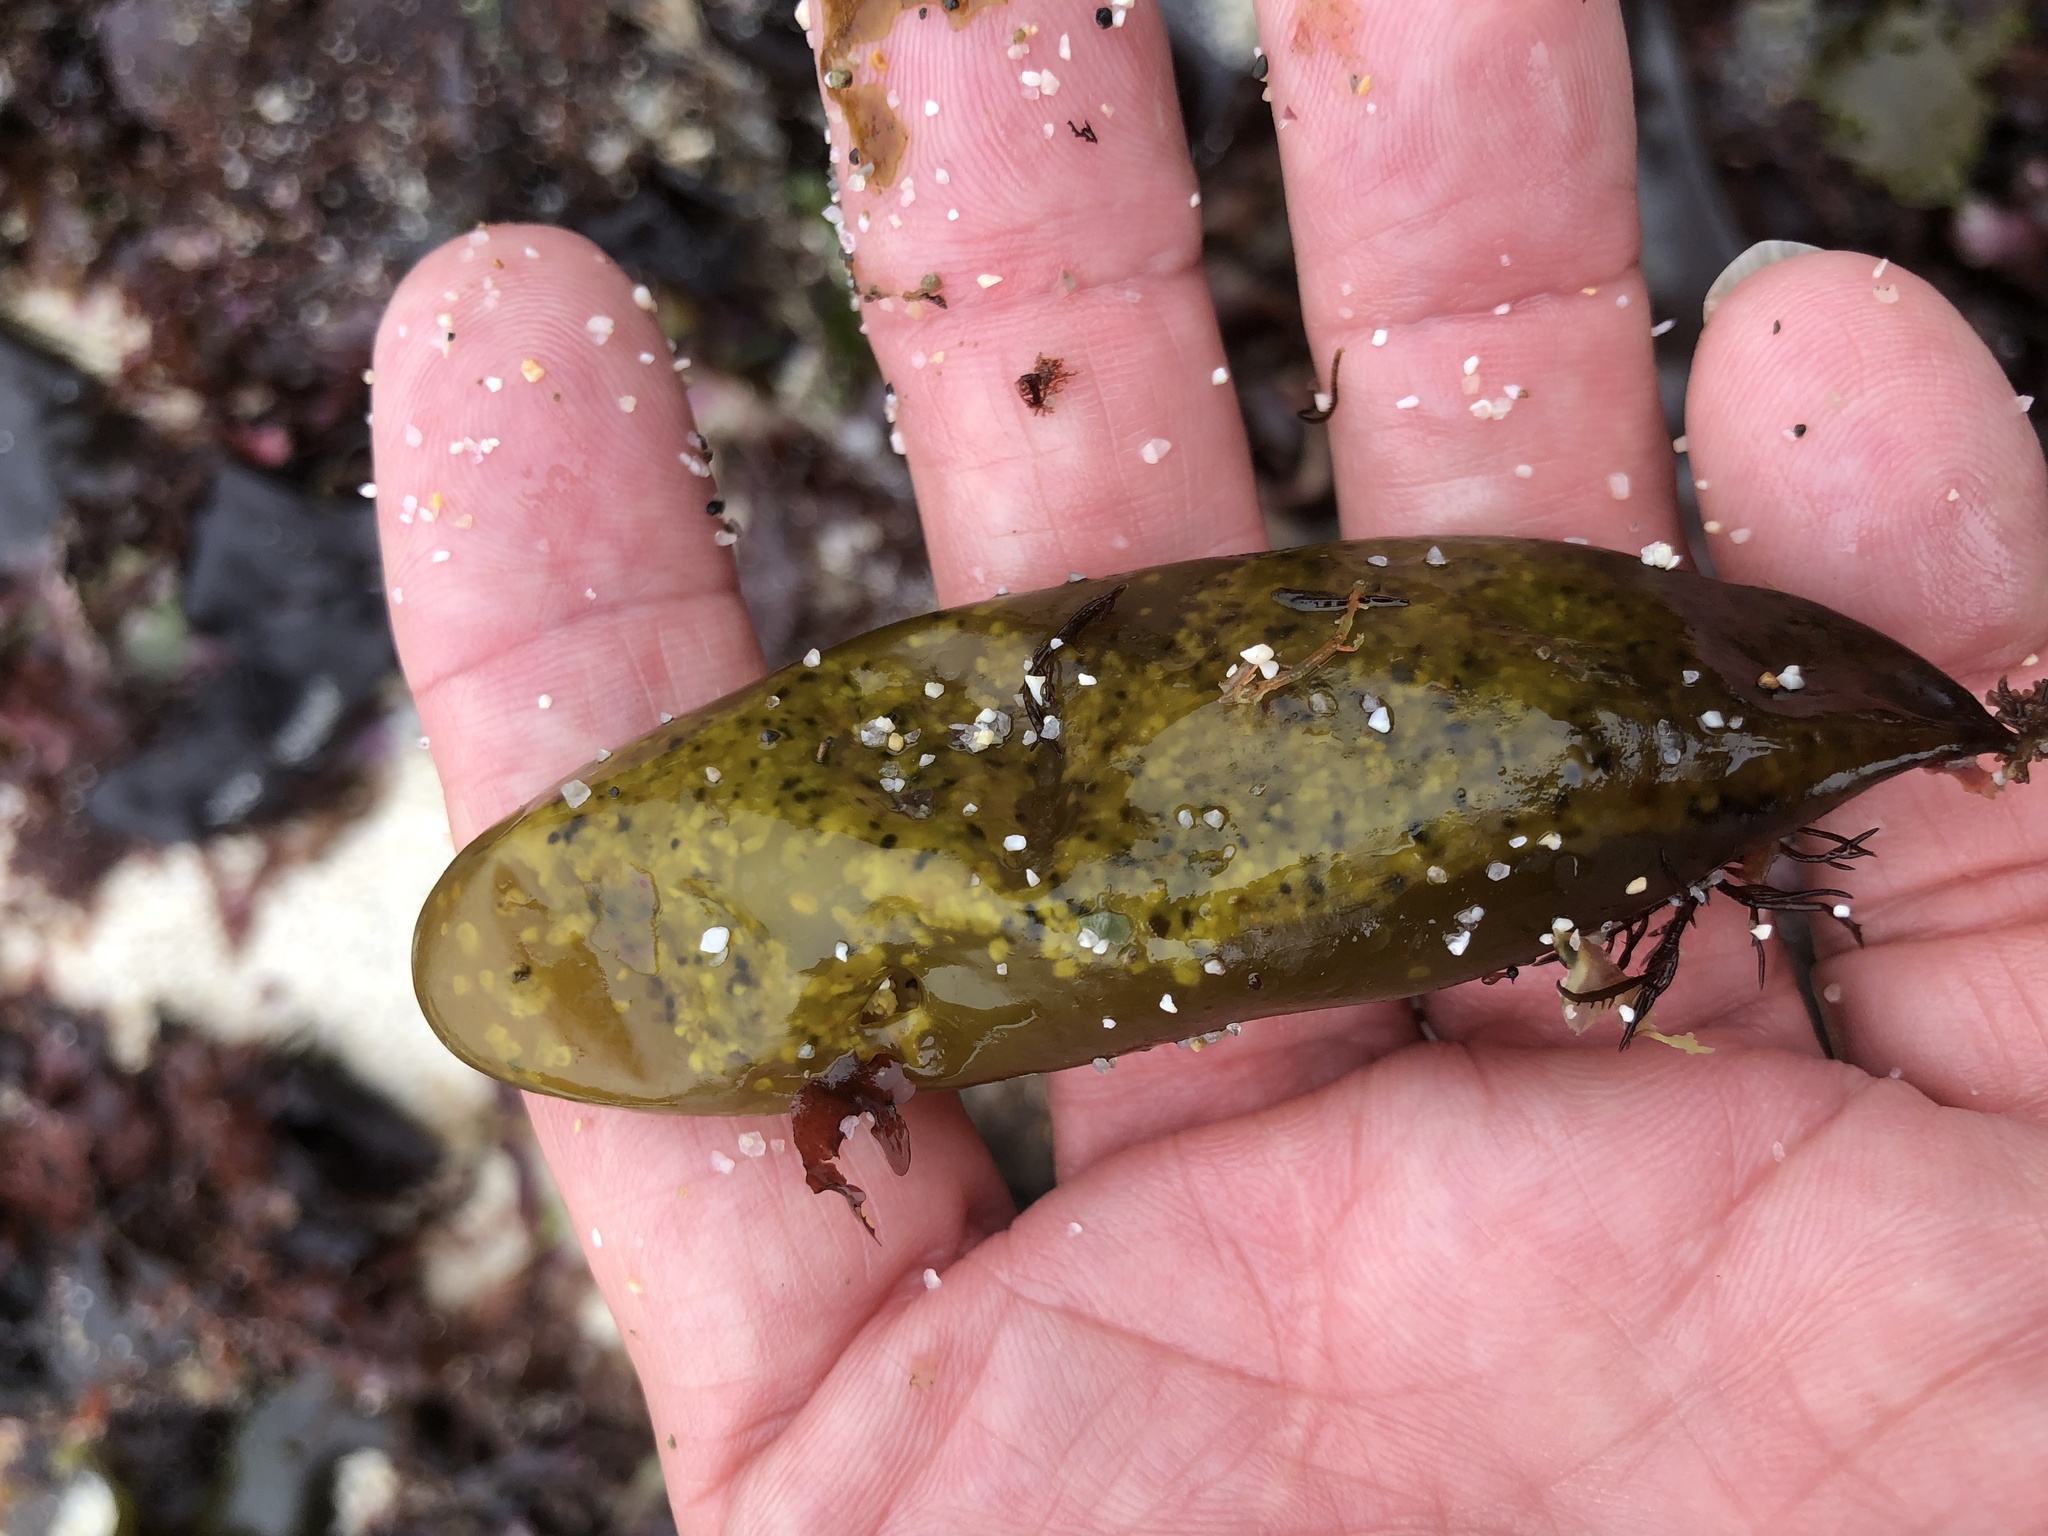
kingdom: Plantae
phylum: Rhodophyta
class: Florideophyceae
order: Palmariales
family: Palmariaceae
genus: Halosaccion
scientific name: Halosaccion glandiforme
